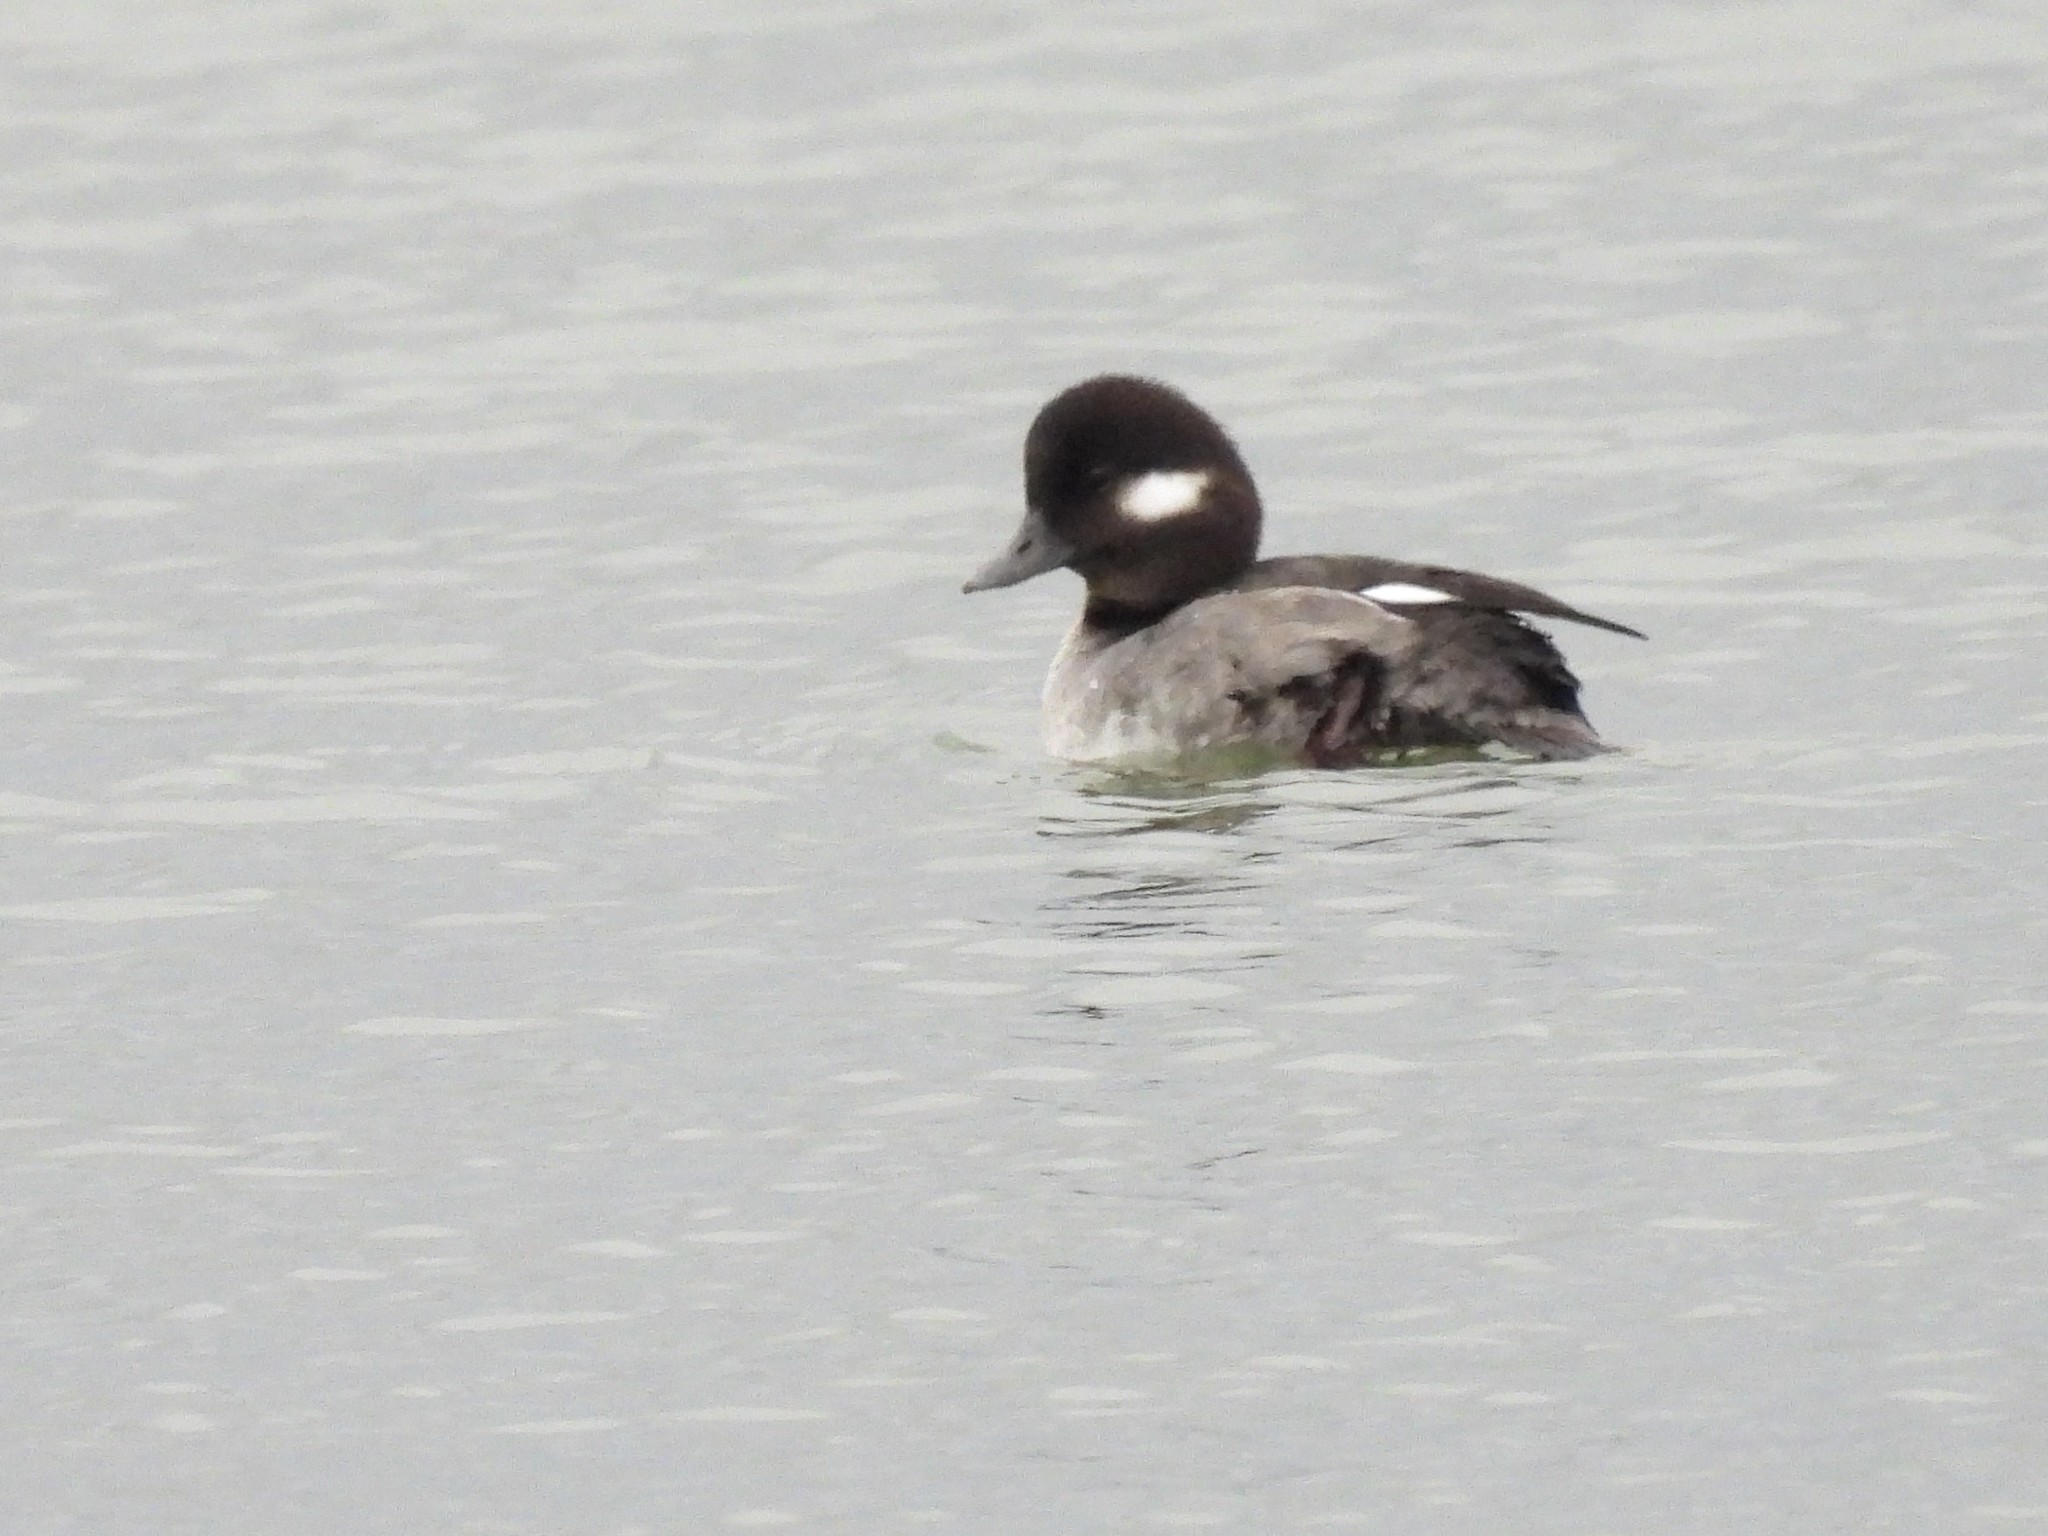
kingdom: Animalia
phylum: Chordata
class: Aves
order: Anseriformes
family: Anatidae
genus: Bucephala
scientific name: Bucephala albeola
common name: Bufflehead
